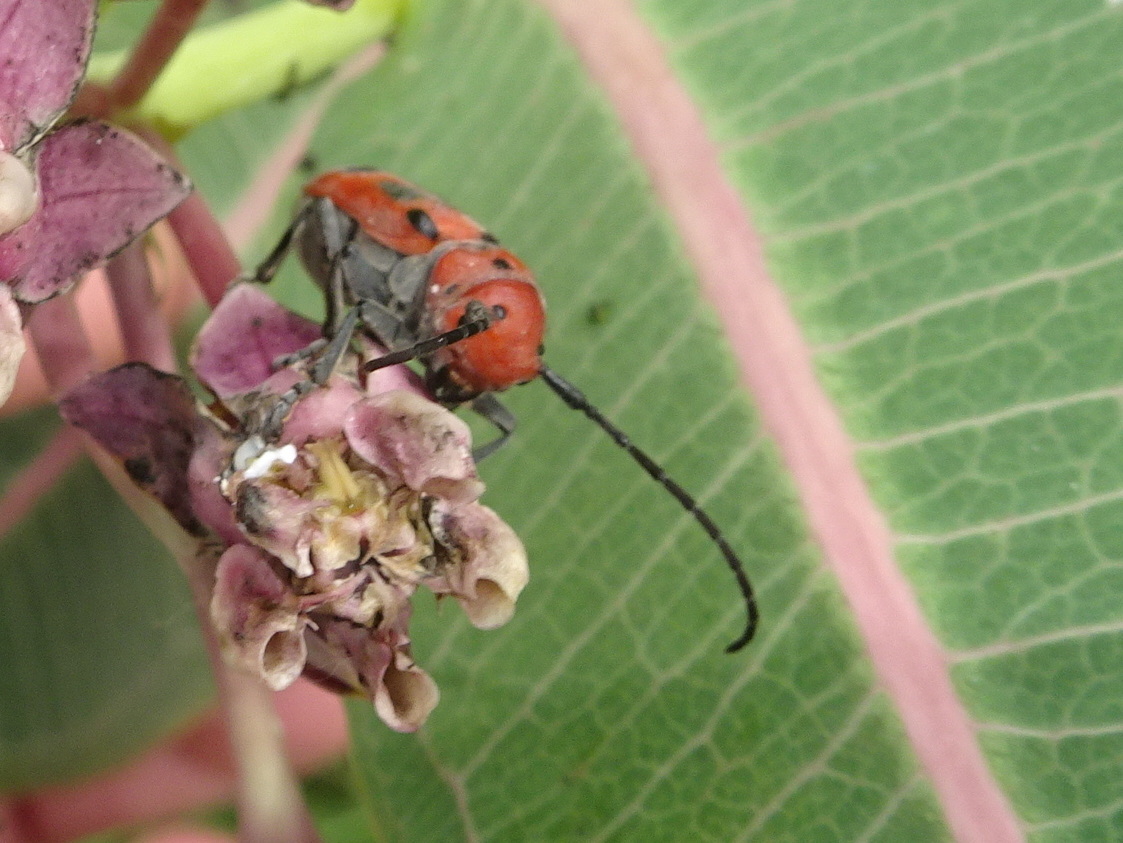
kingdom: Animalia
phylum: Arthropoda
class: Insecta
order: Coleoptera
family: Cerambycidae
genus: Tetraopes
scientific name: Tetraopes tetrophthalmus
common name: Red milkweed beetle
